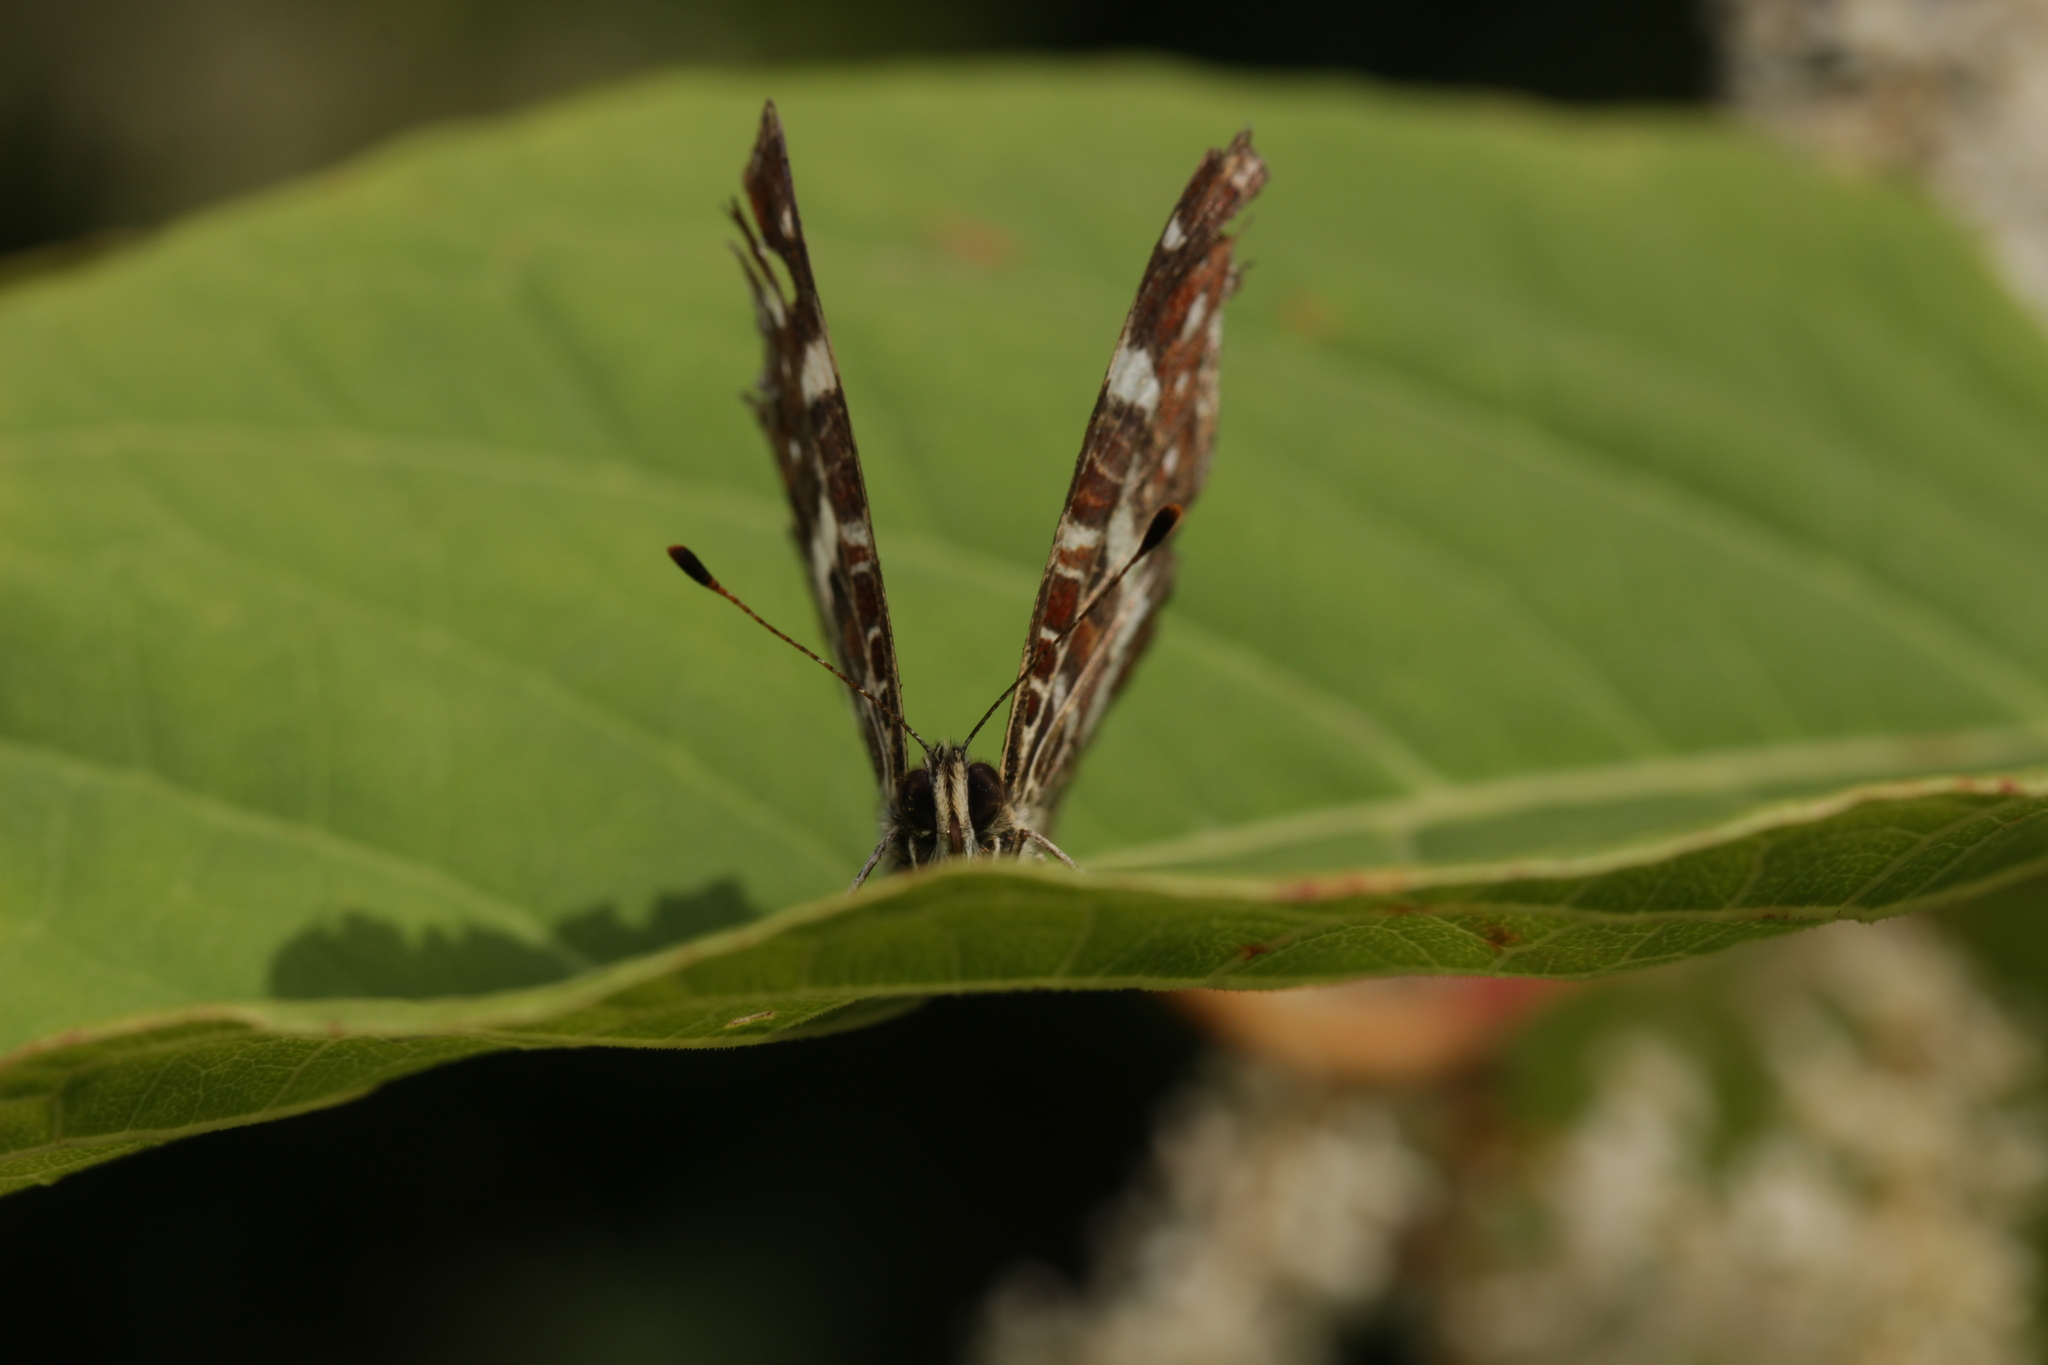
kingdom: Animalia
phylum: Arthropoda
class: Insecta
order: Lepidoptera
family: Nymphalidae
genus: Araschnia
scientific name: Araschnia levana
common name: Map butterfly
